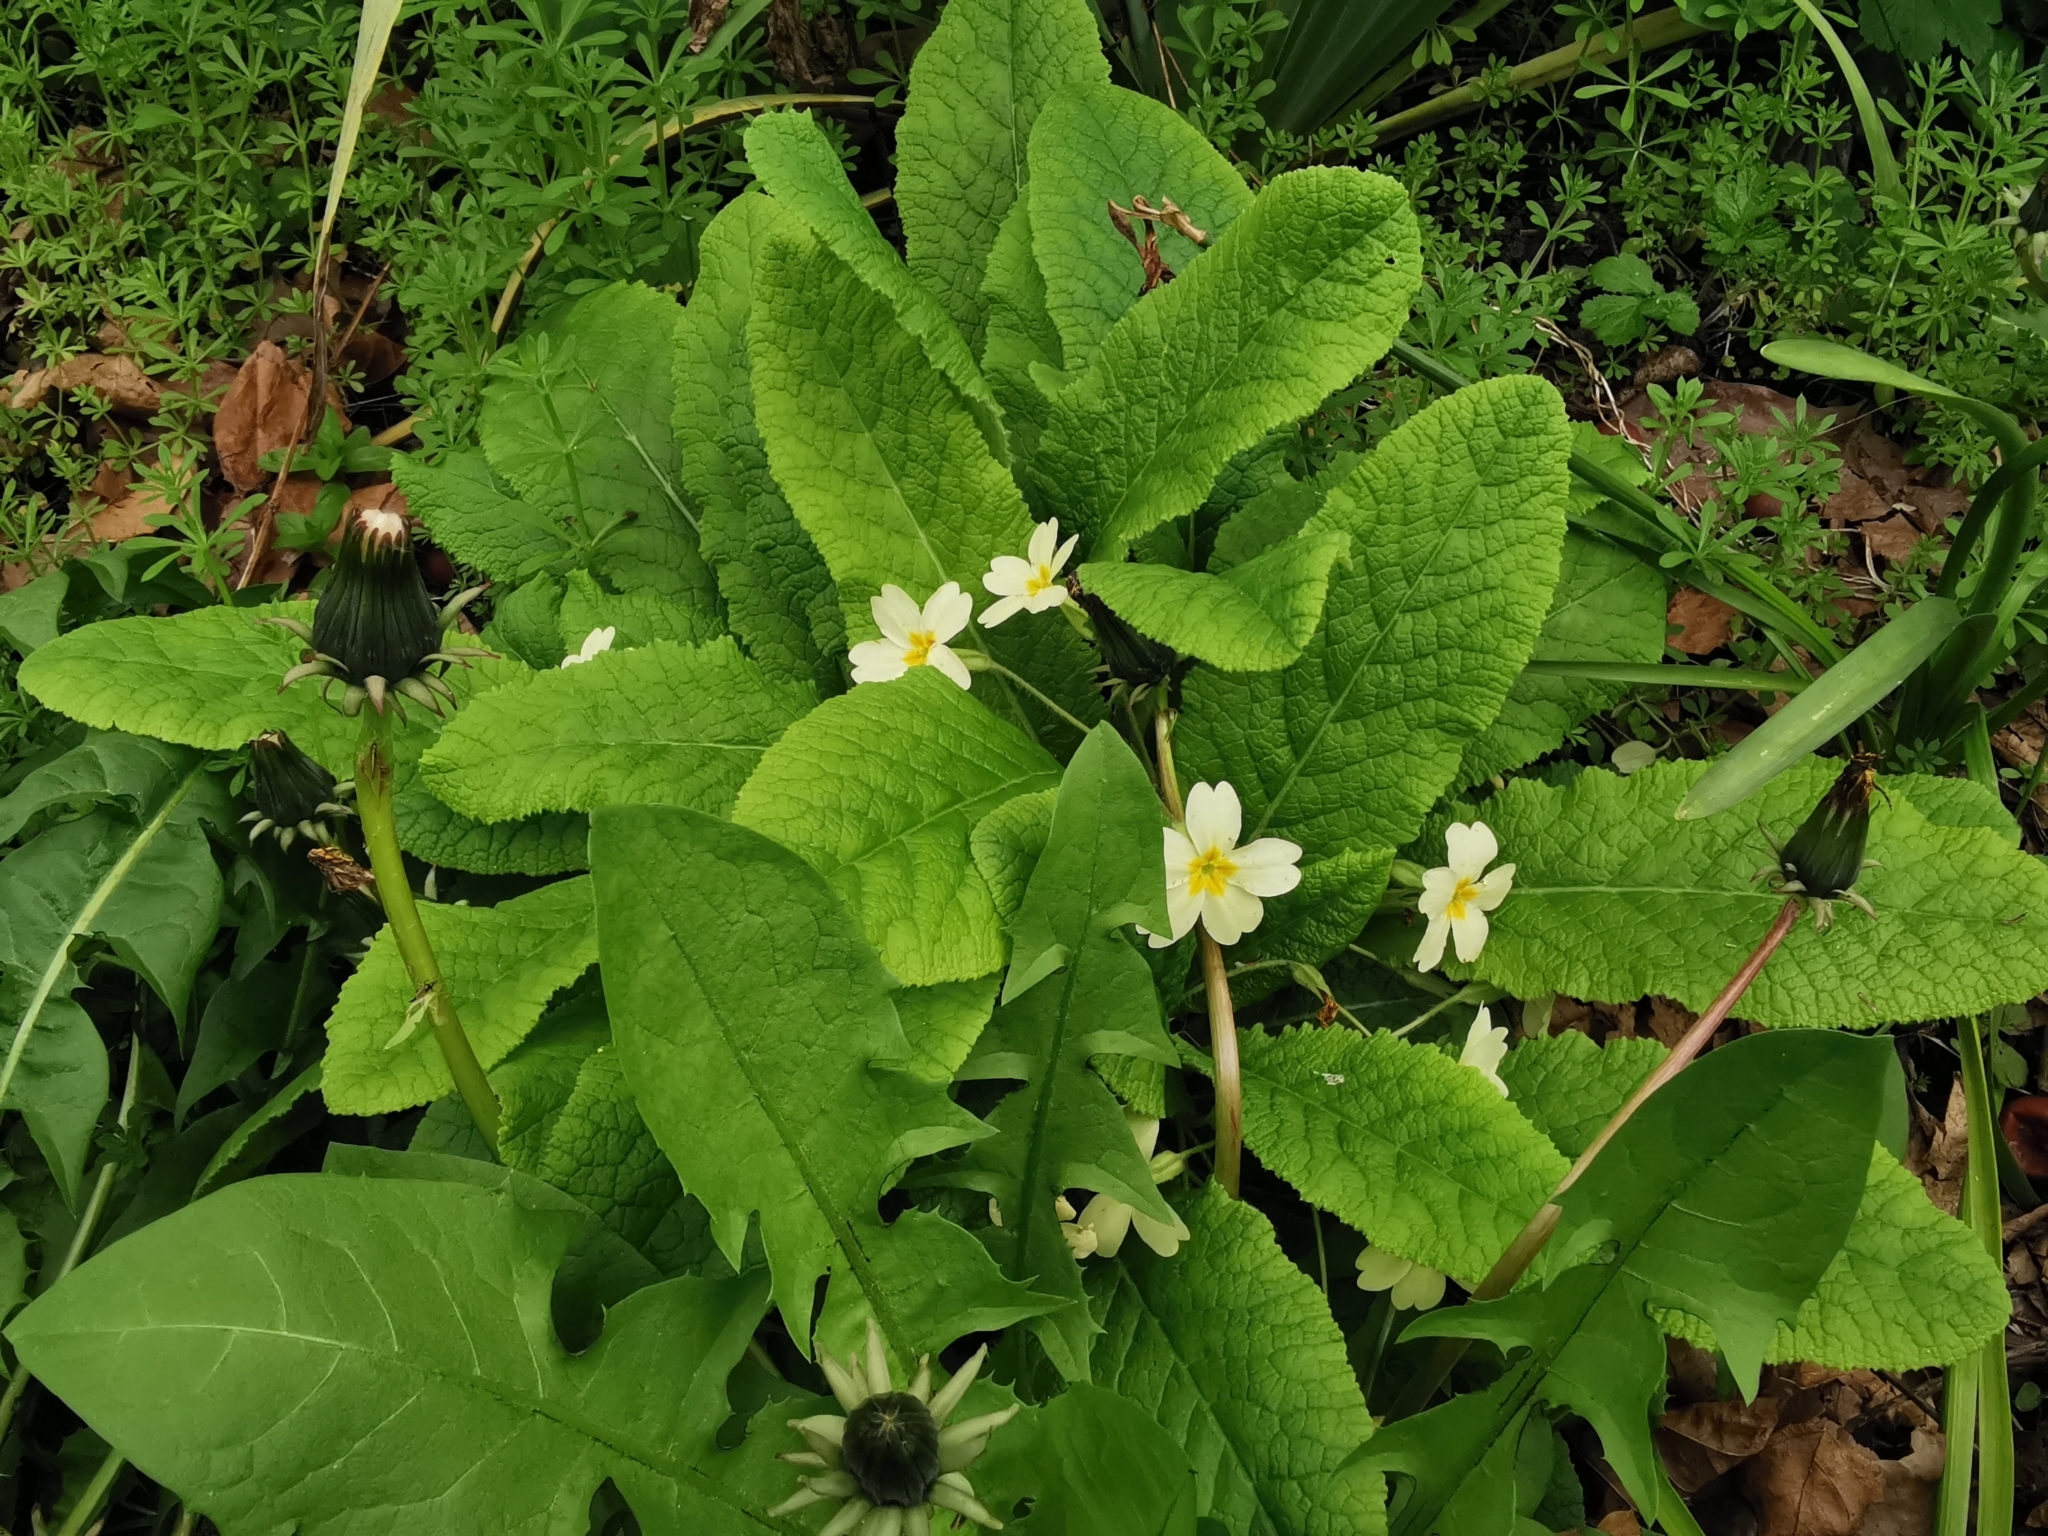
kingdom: Plantae
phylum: Tracheophyta
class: Magnoliopsida
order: Ericales
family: Primulaceae
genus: Primula
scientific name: Primula vulgaris
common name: Primrose
